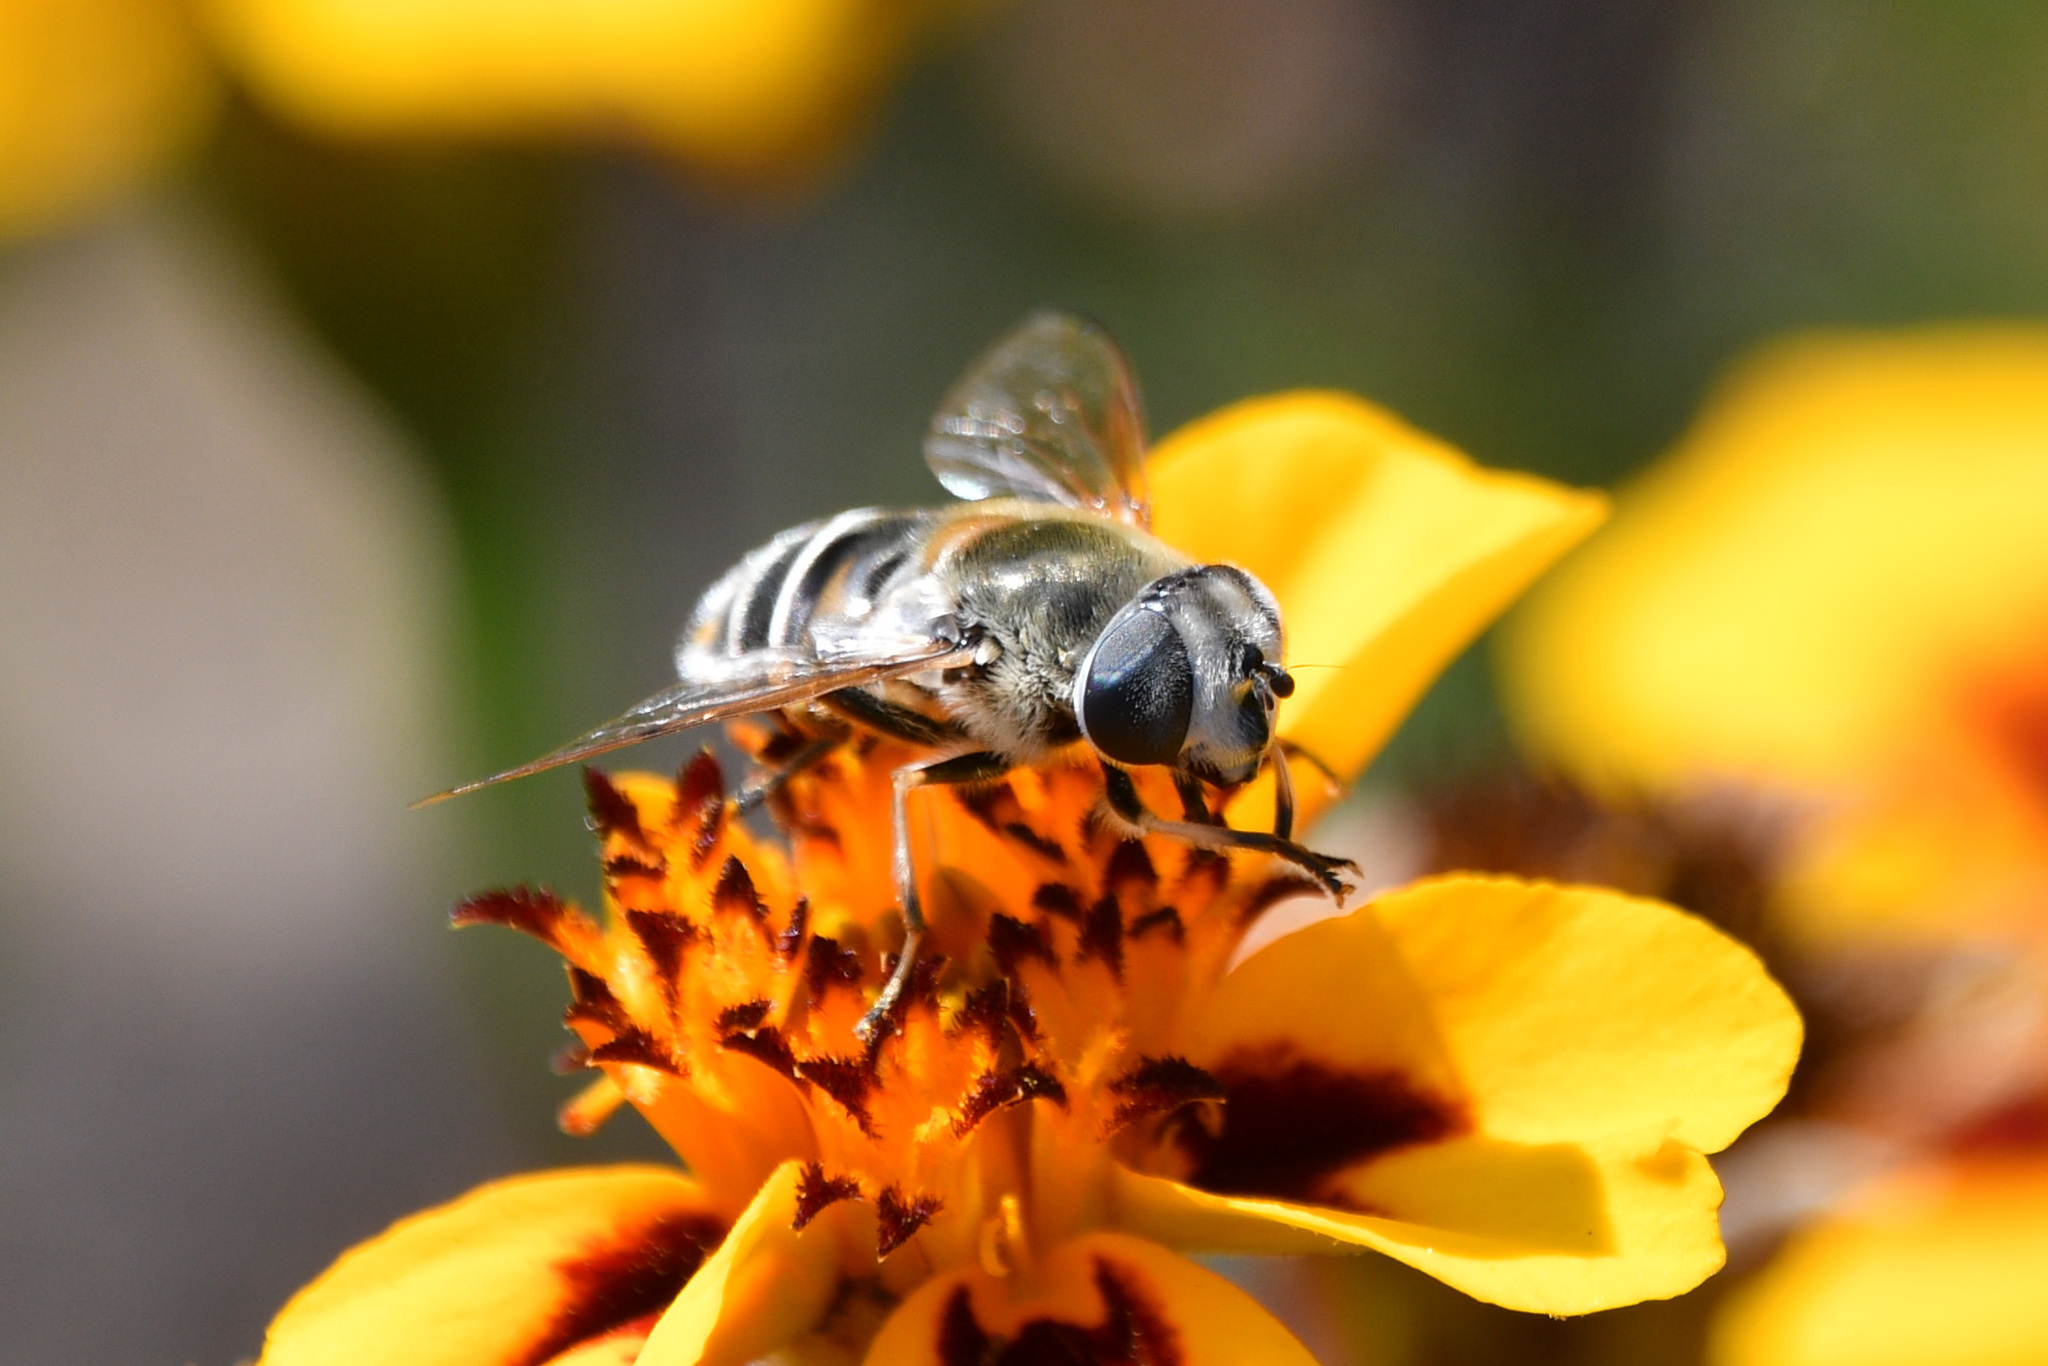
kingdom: Animalia
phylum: Arthropoda
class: Insecta
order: Diptera
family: Syrphidae
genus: Eristalis
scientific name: Eristalis stipator
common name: Yellow-shouldered drone fly
